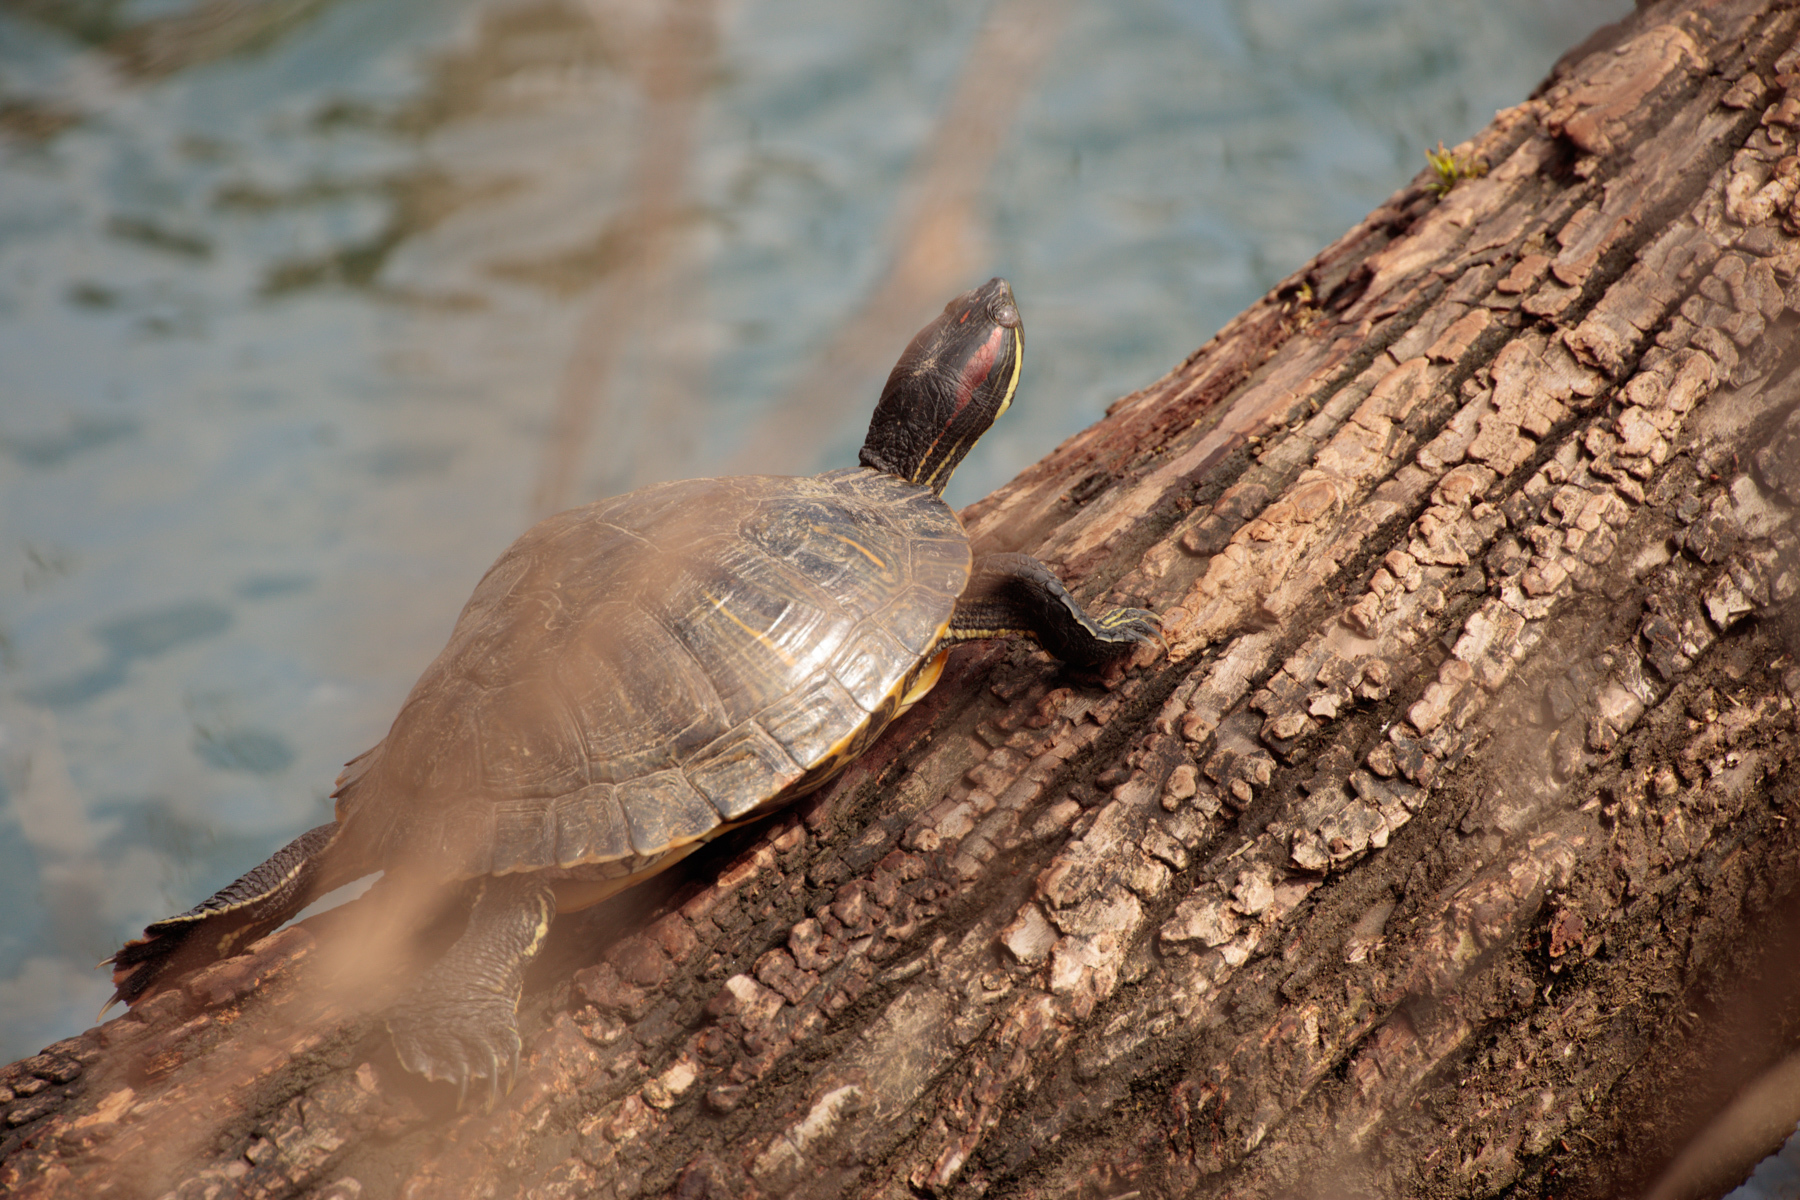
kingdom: Animalia
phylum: Chordata
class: Testudines
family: Emydidae
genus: Trachemys
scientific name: Trachemys scripta
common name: Slider
